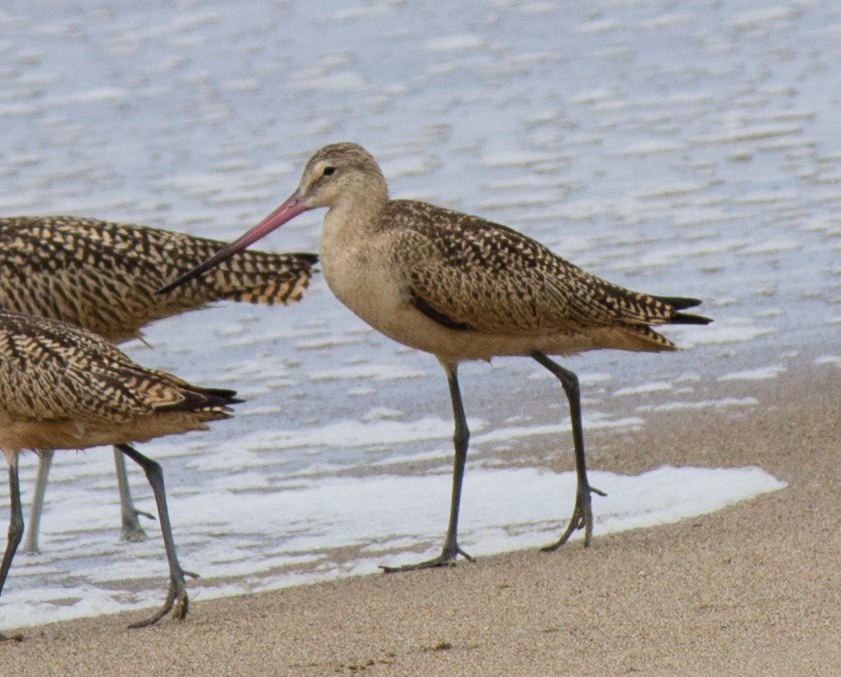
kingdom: Animalia
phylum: Chordata
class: Aves
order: Charadriiformes
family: Scolopacidae
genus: Limosa
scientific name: Limosa fedoa
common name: Marbled godwit
